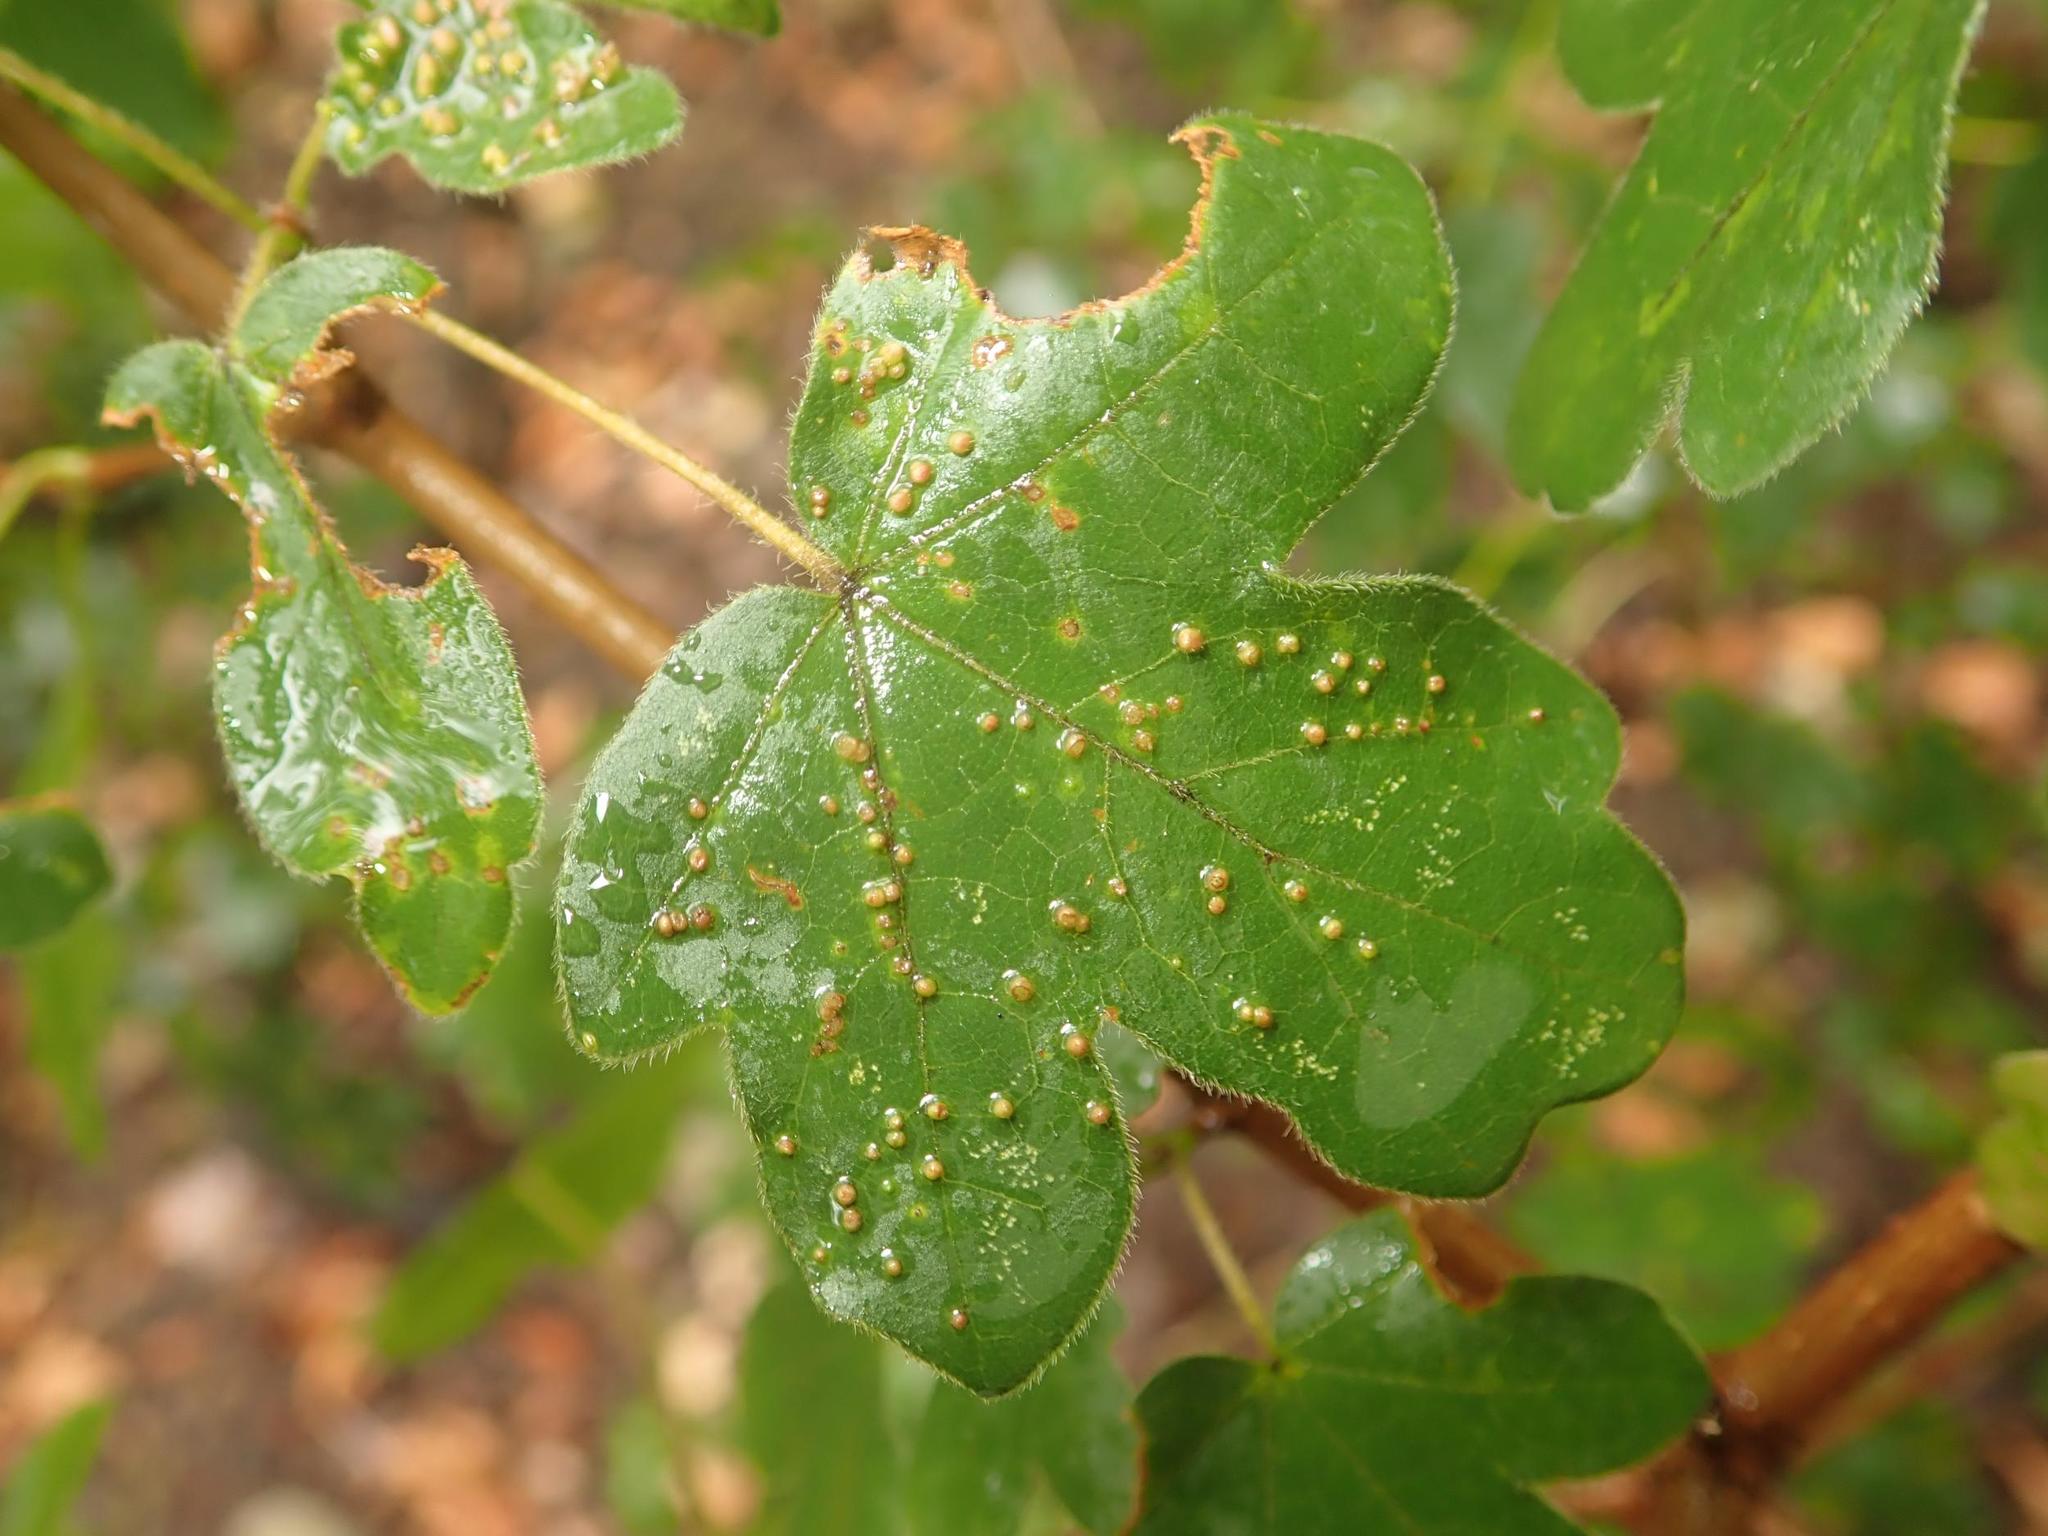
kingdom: Animalia
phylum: Arthropoda
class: Arachnida
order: Trombidiformes
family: Eriophyidae
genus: Aceria
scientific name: Aceria myriadeum
